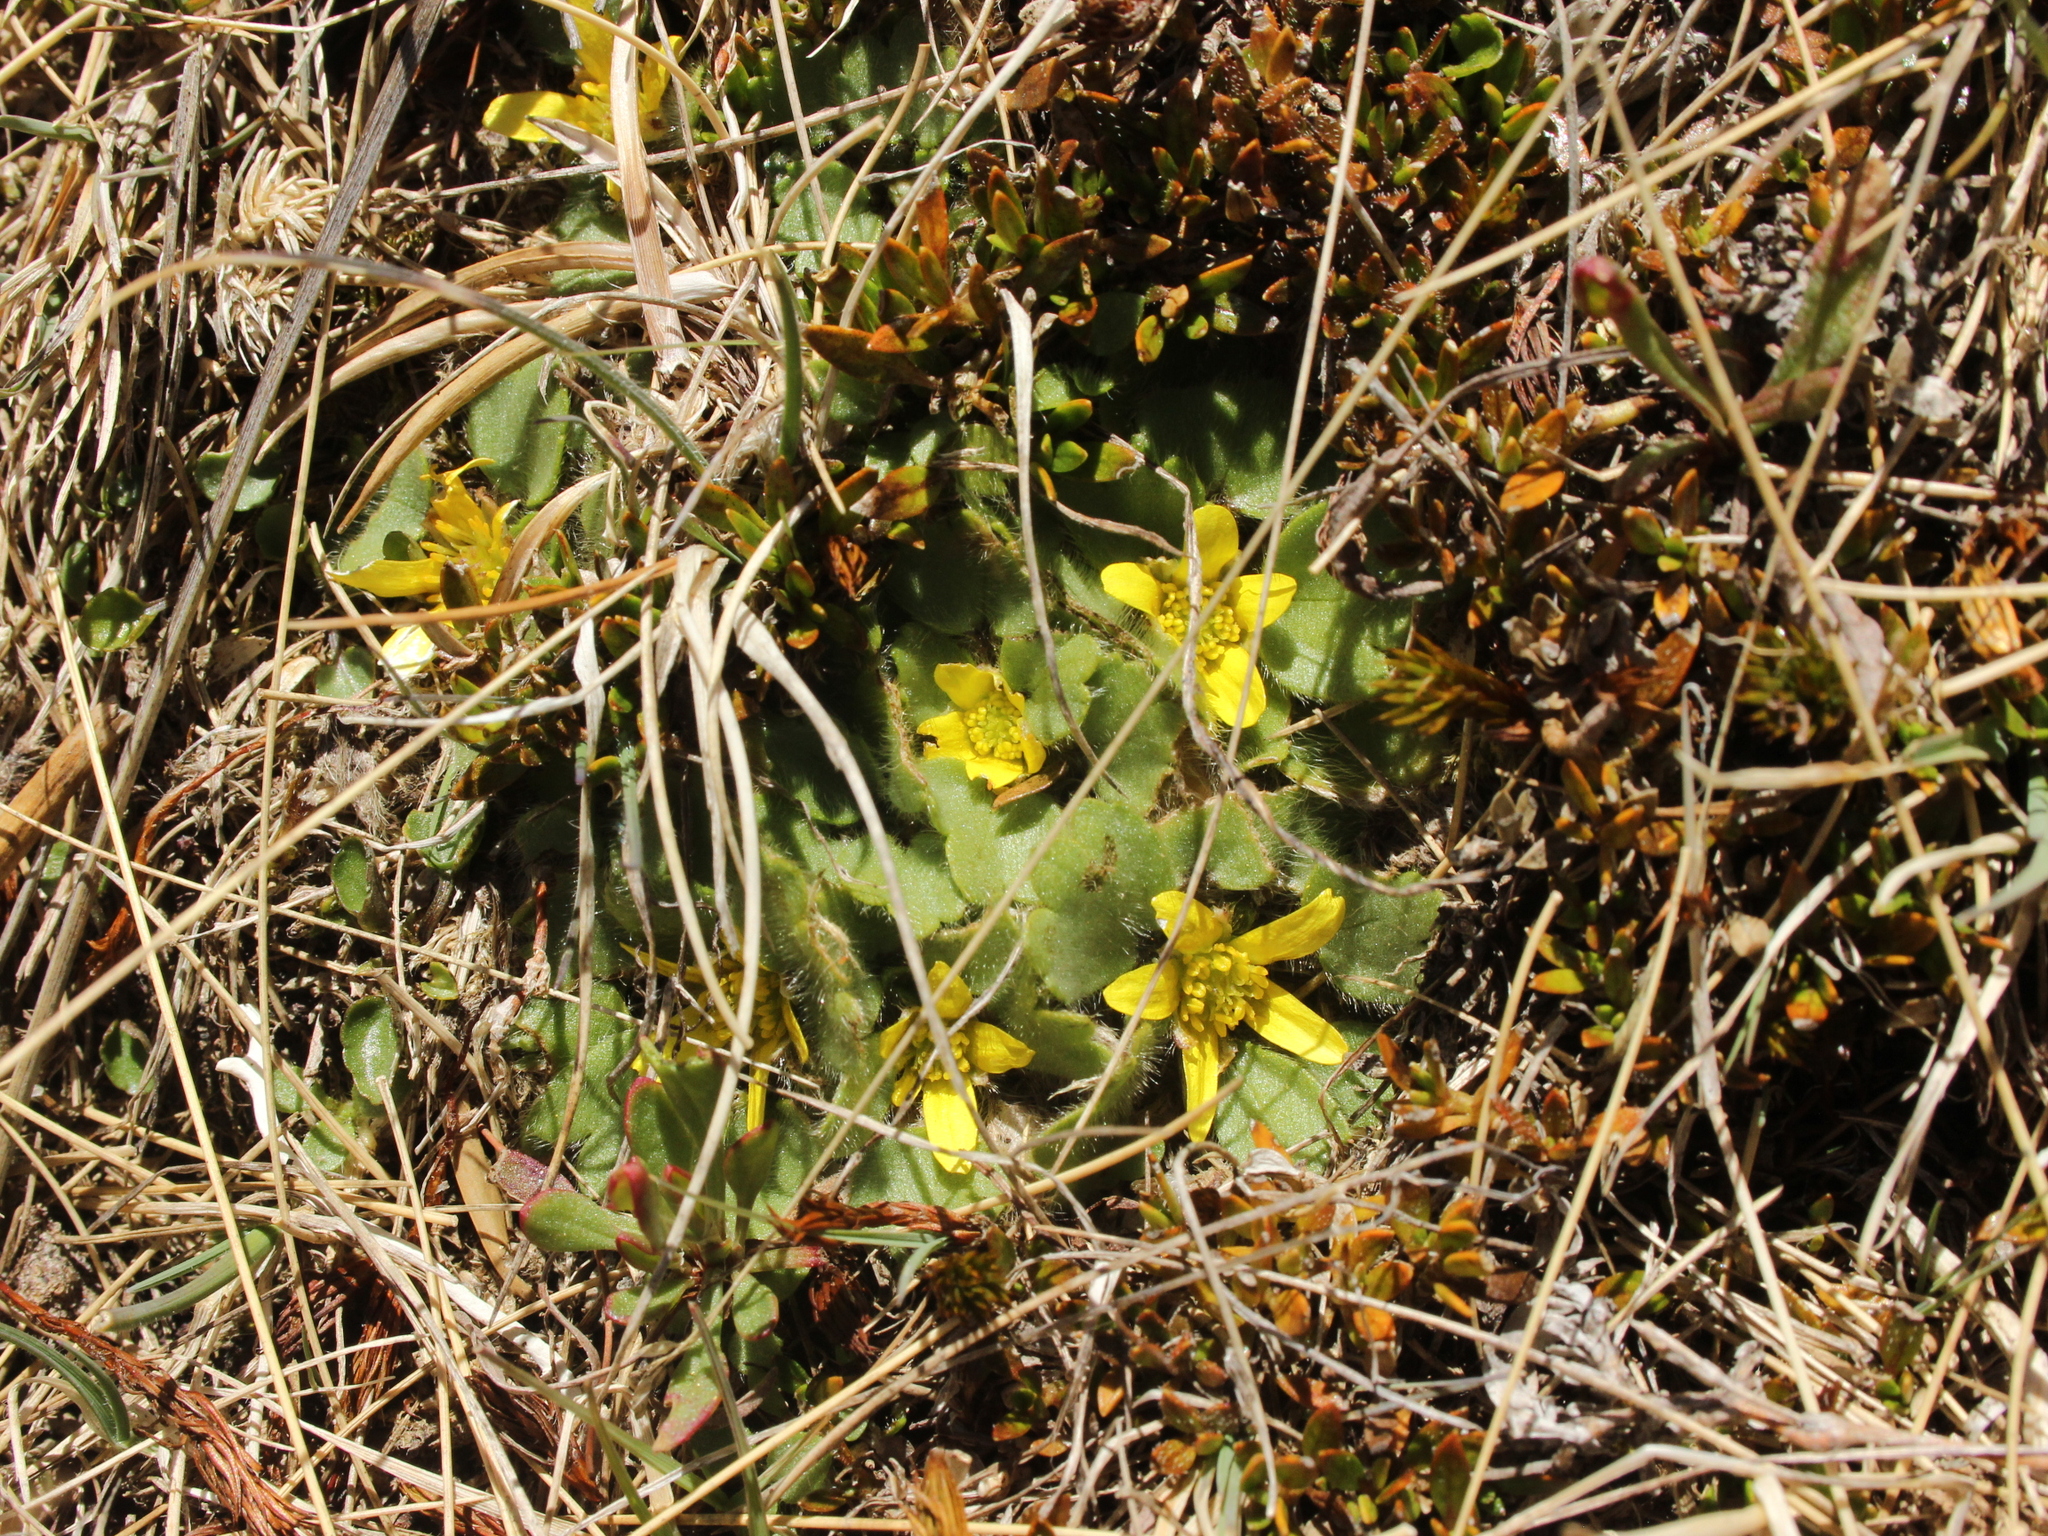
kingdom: Plantae
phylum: Tracheophyta
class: Magnoliopsida
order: Ranunculales
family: Ranunculaceae
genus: Ranunculus
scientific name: Ranunculus royi
